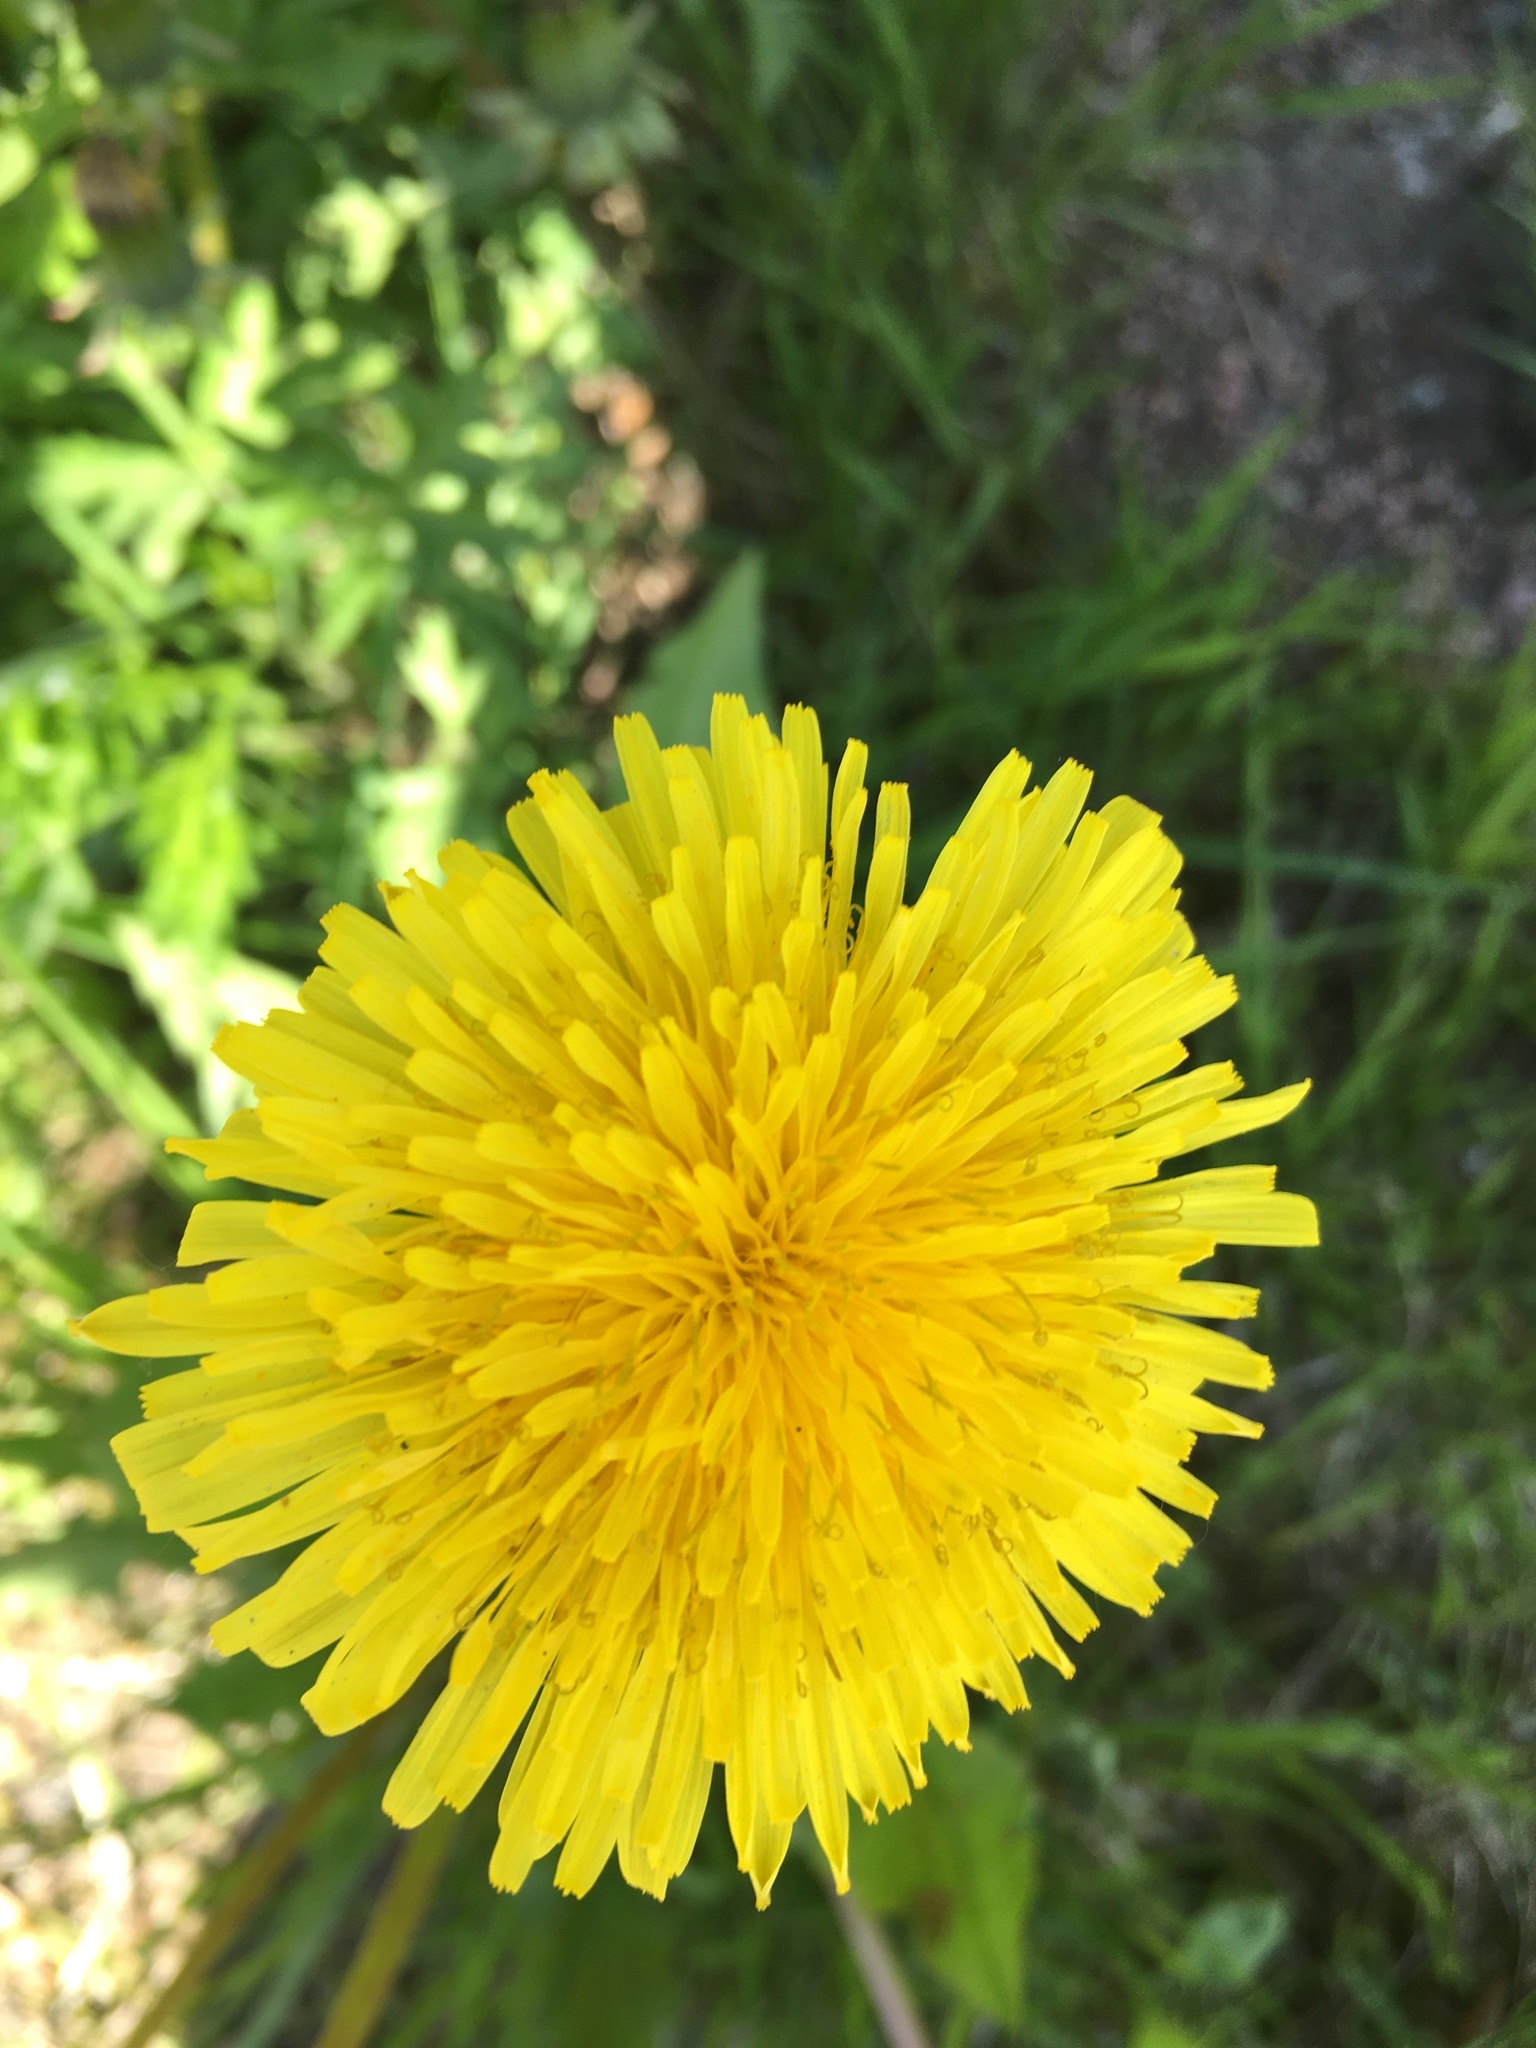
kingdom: Plantae
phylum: Tracheophyta
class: Magnoliopsida
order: Asterales
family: Asteraceae
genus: Taraxacum
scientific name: Taraxacum officinale
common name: Common dandelion
